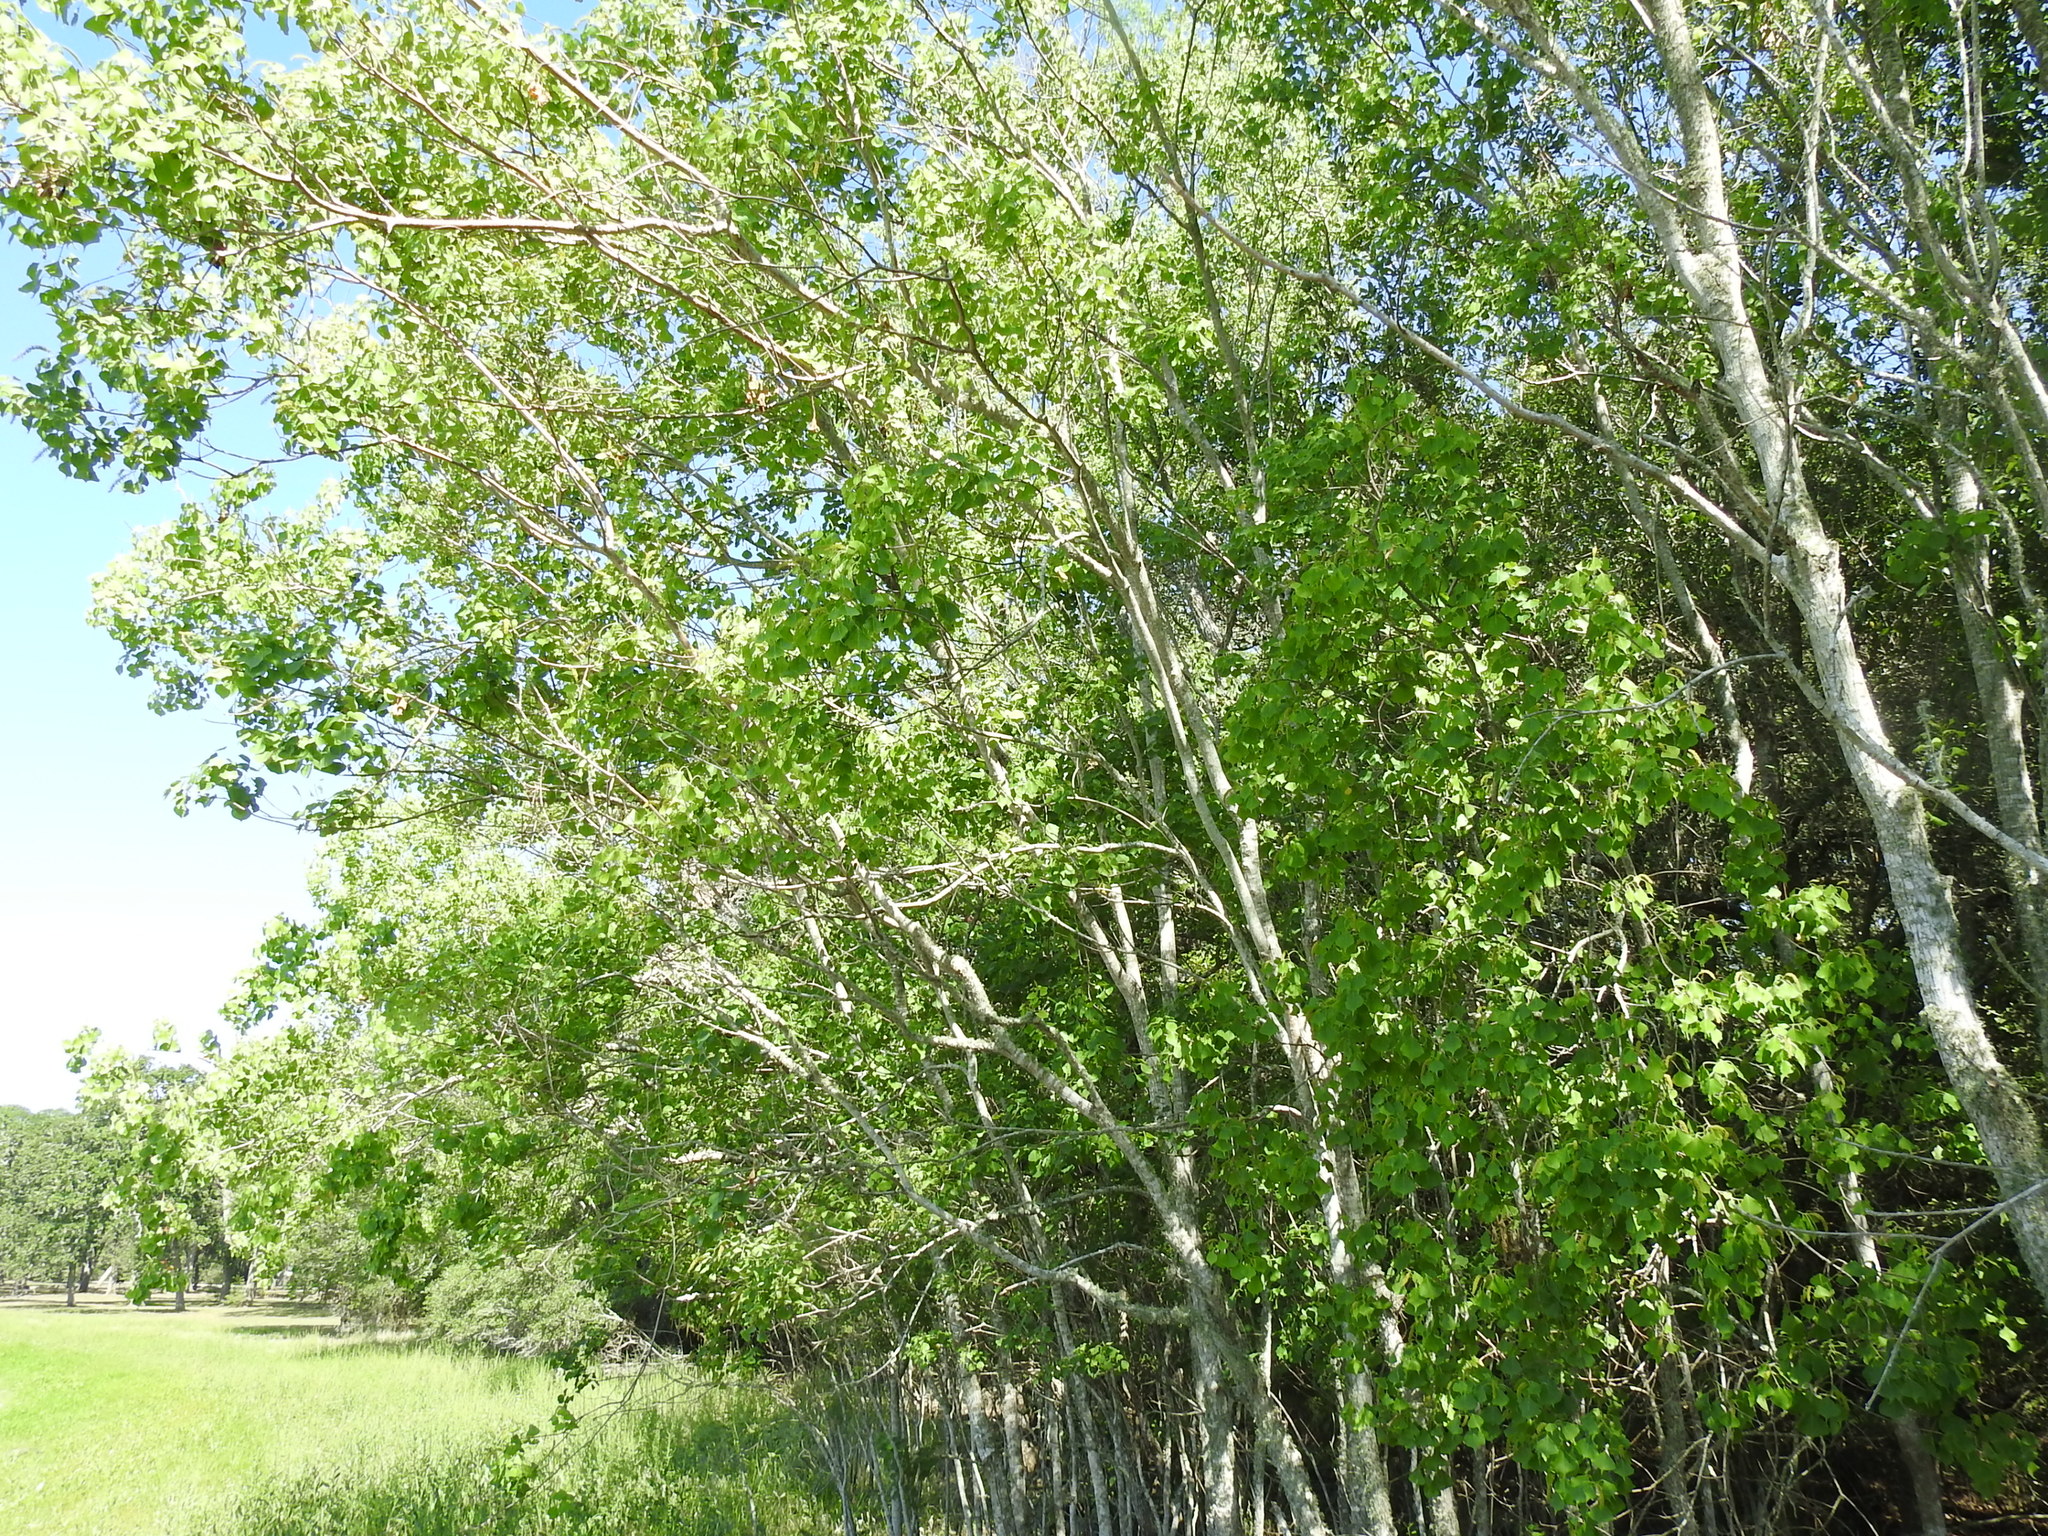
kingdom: Plantae
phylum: Tracheophyta
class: Magnoliopsida
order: Malpighiales
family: Euphorbiaceae
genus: Triadica
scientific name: Triadica sebifera
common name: Chinese tallow
